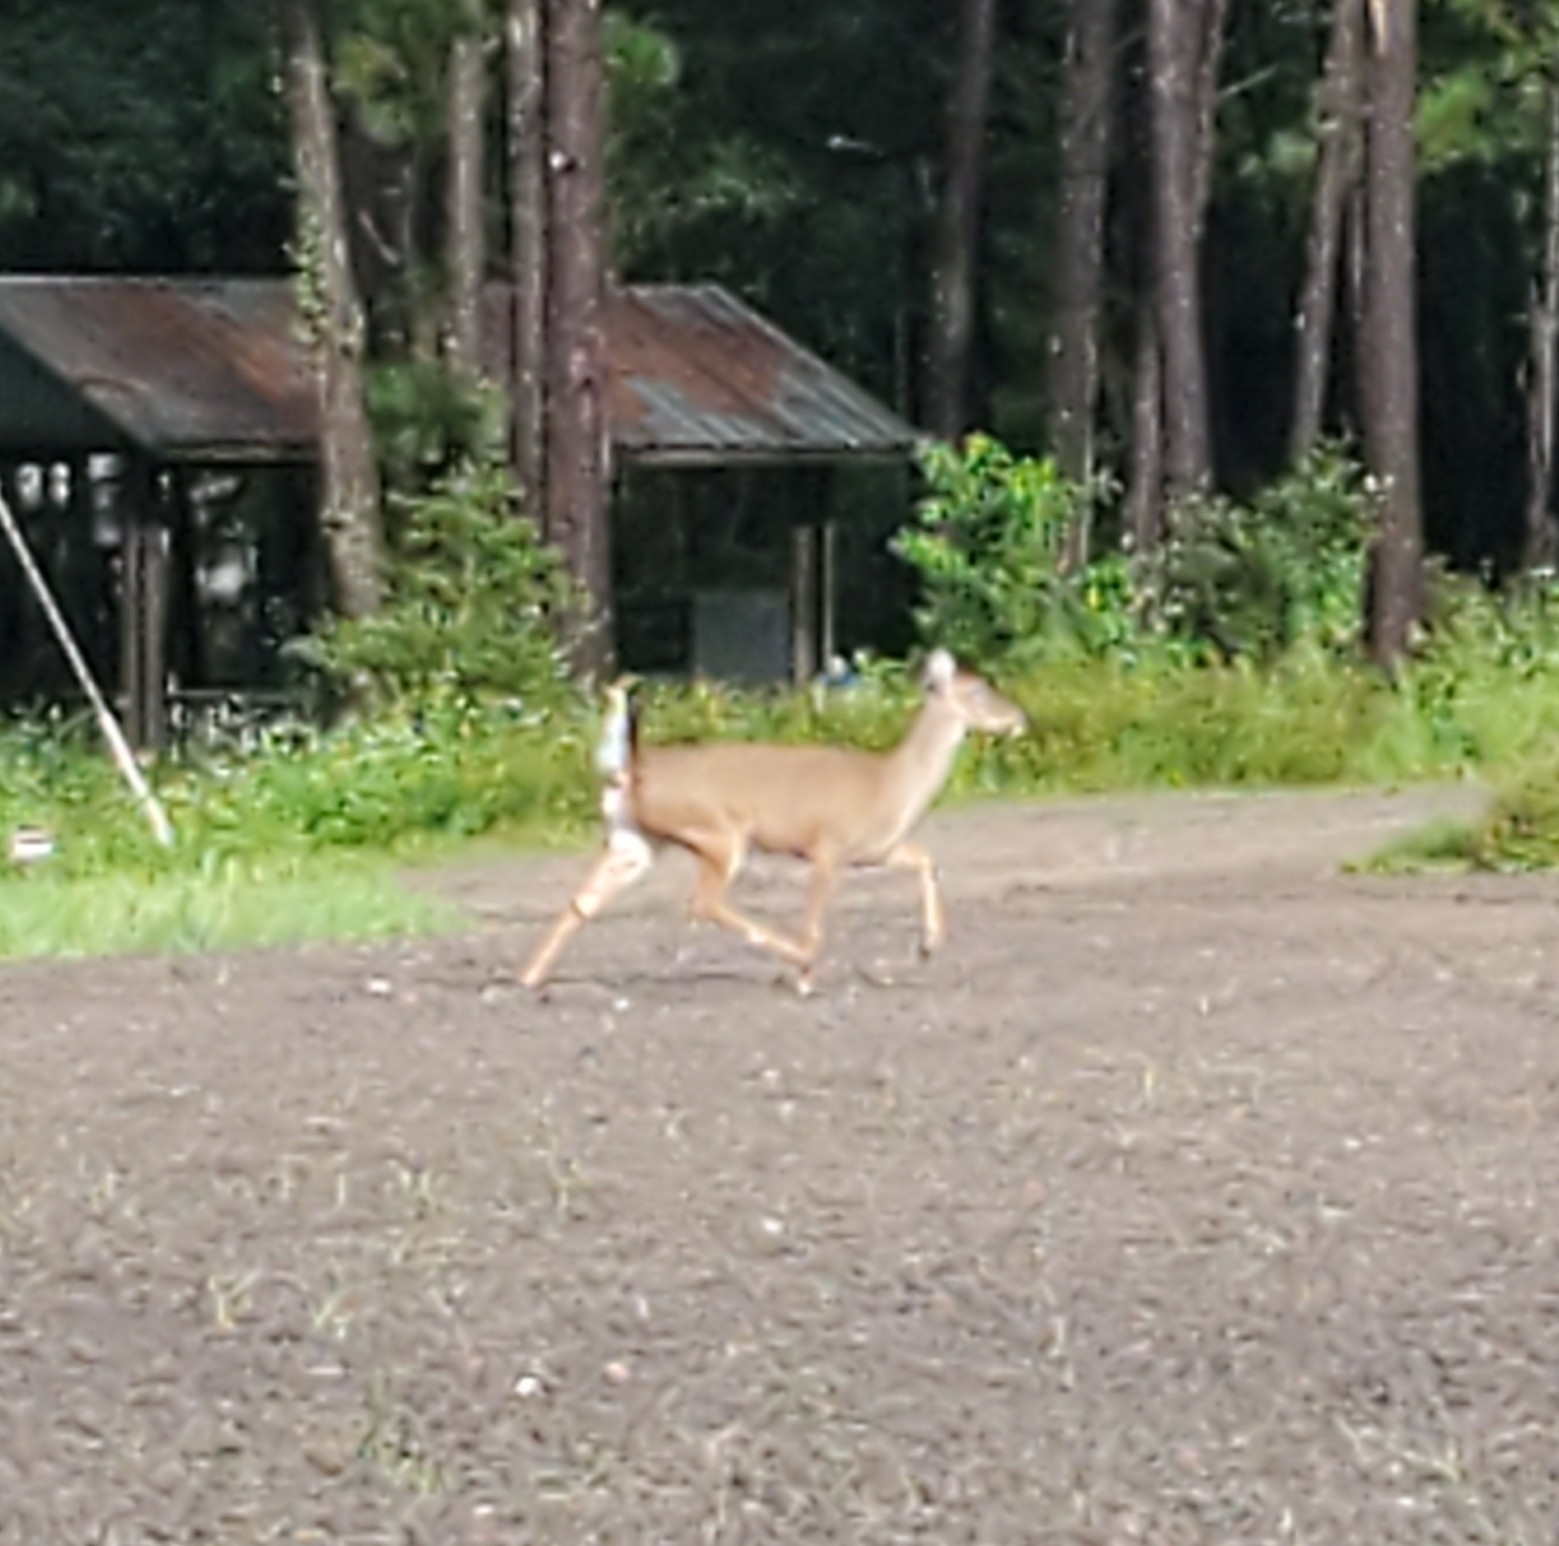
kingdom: Animalia
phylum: Chordata
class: Mammalia
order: Artiodactyla
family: Cervidae
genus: Odocoileus
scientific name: Odocoileus virginianus
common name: White-tailed deer
